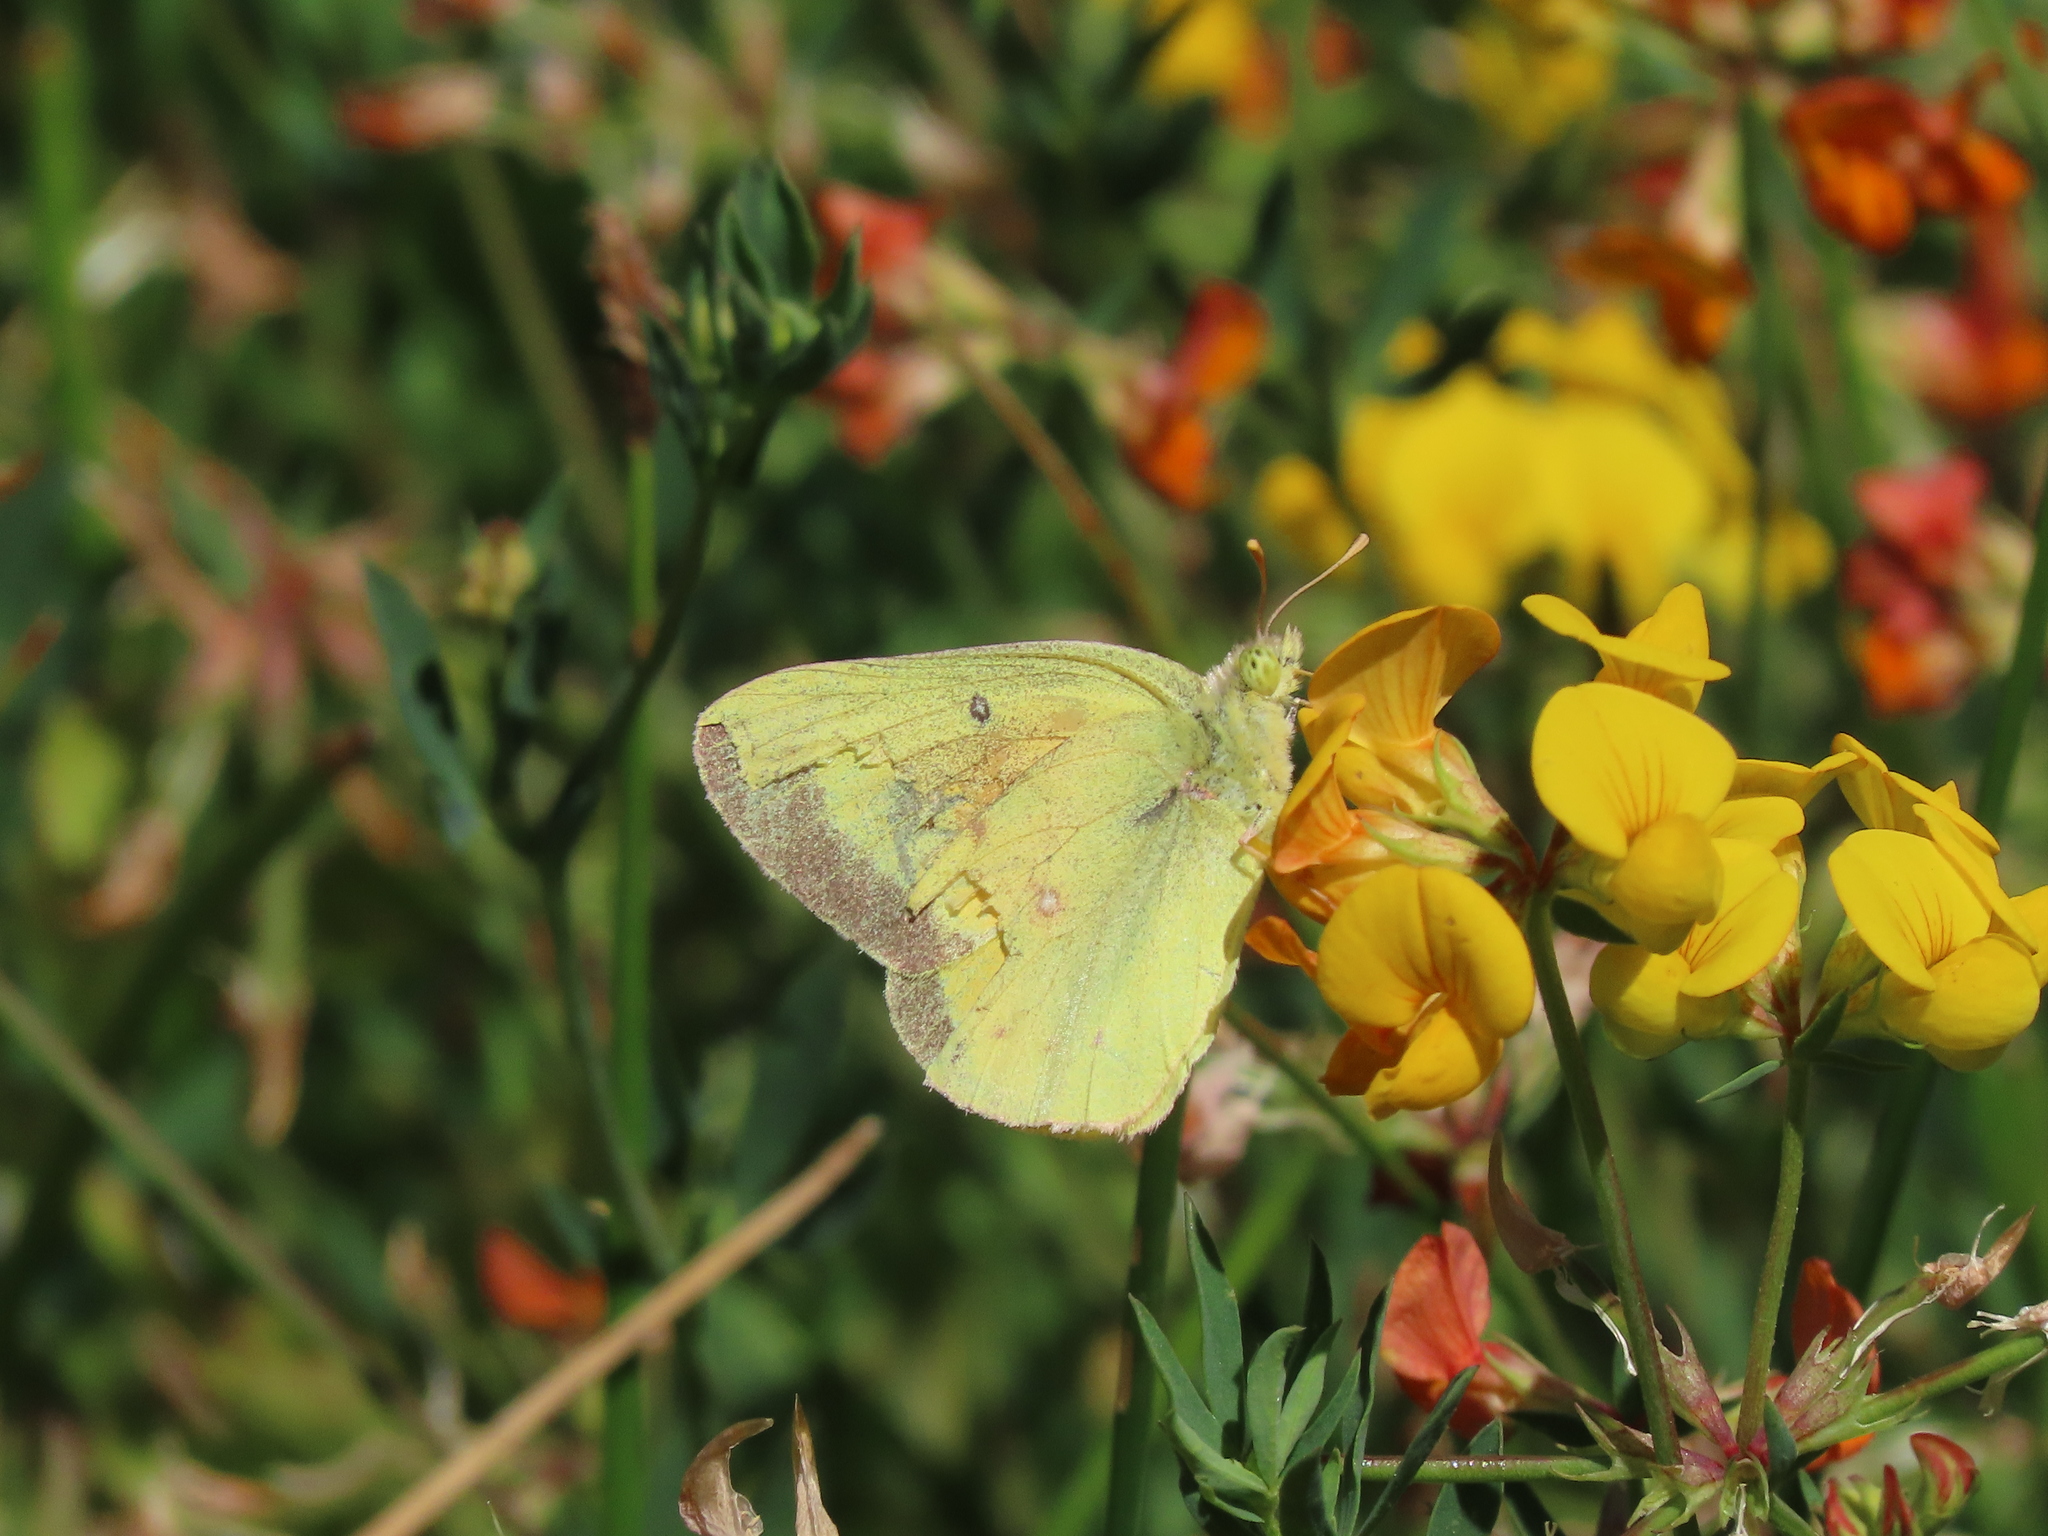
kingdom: Animalia
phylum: Arthropoda
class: Insecta
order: Lepidoptera
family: Pieridae
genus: Colias
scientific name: Colias eurytheme
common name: Alfalfa butterfly
